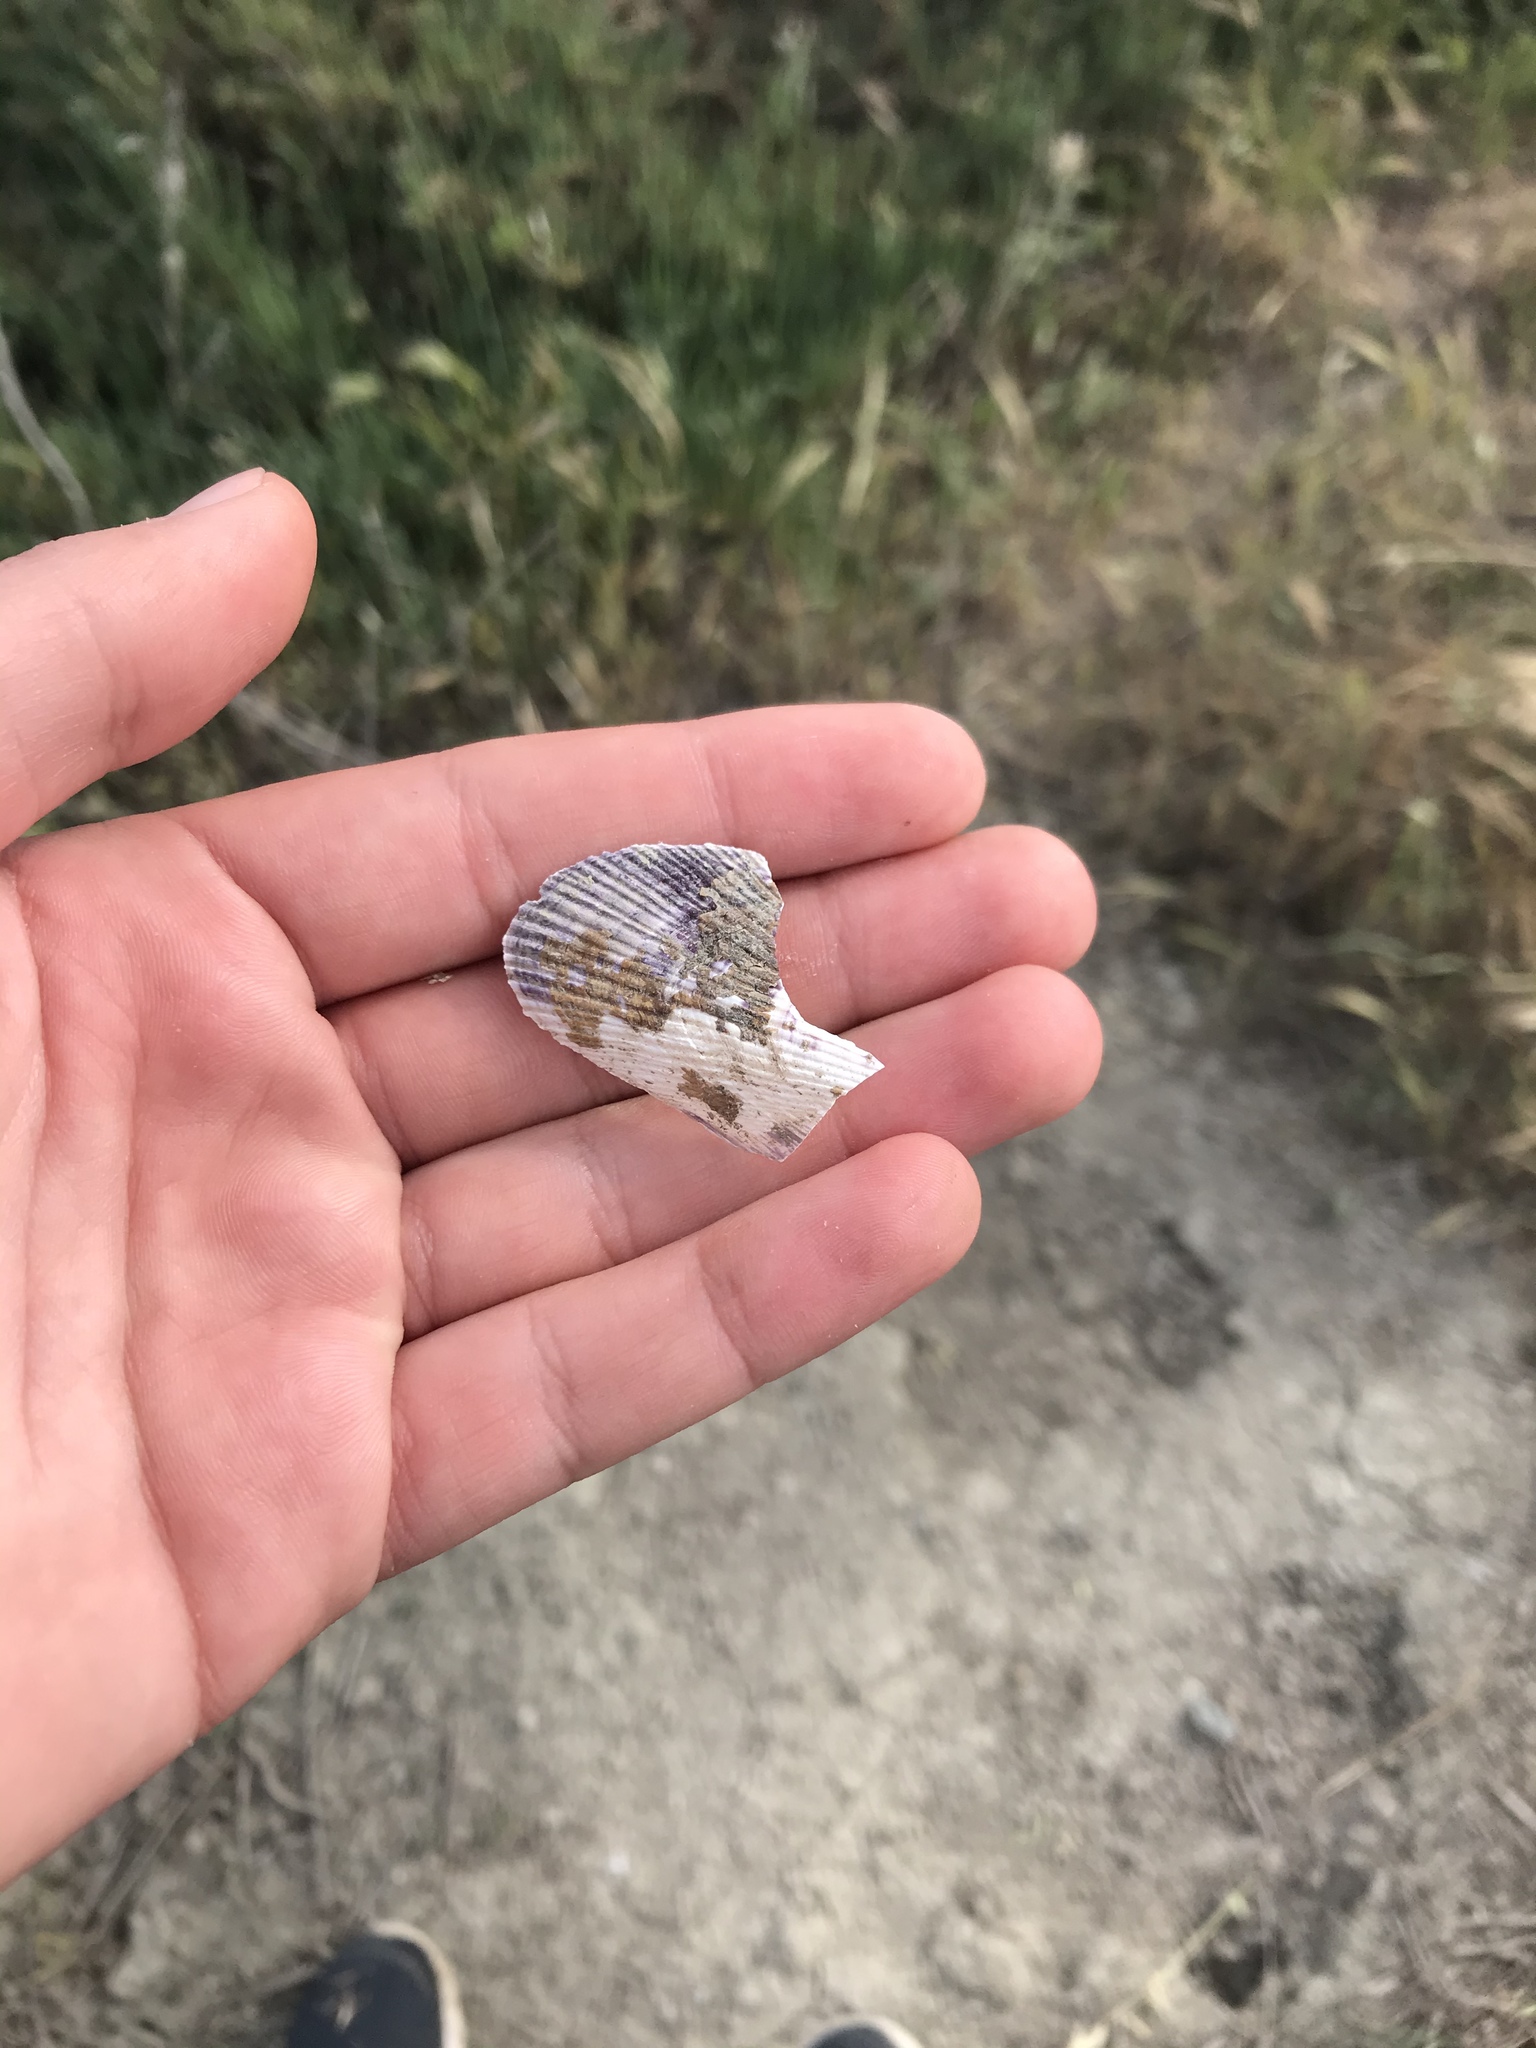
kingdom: Animalia
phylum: Mollusca
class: Bivalvia
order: Mytilida
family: Mytilidae
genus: Geukensia
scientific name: Geukensia demissa
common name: Ribbed mussel
